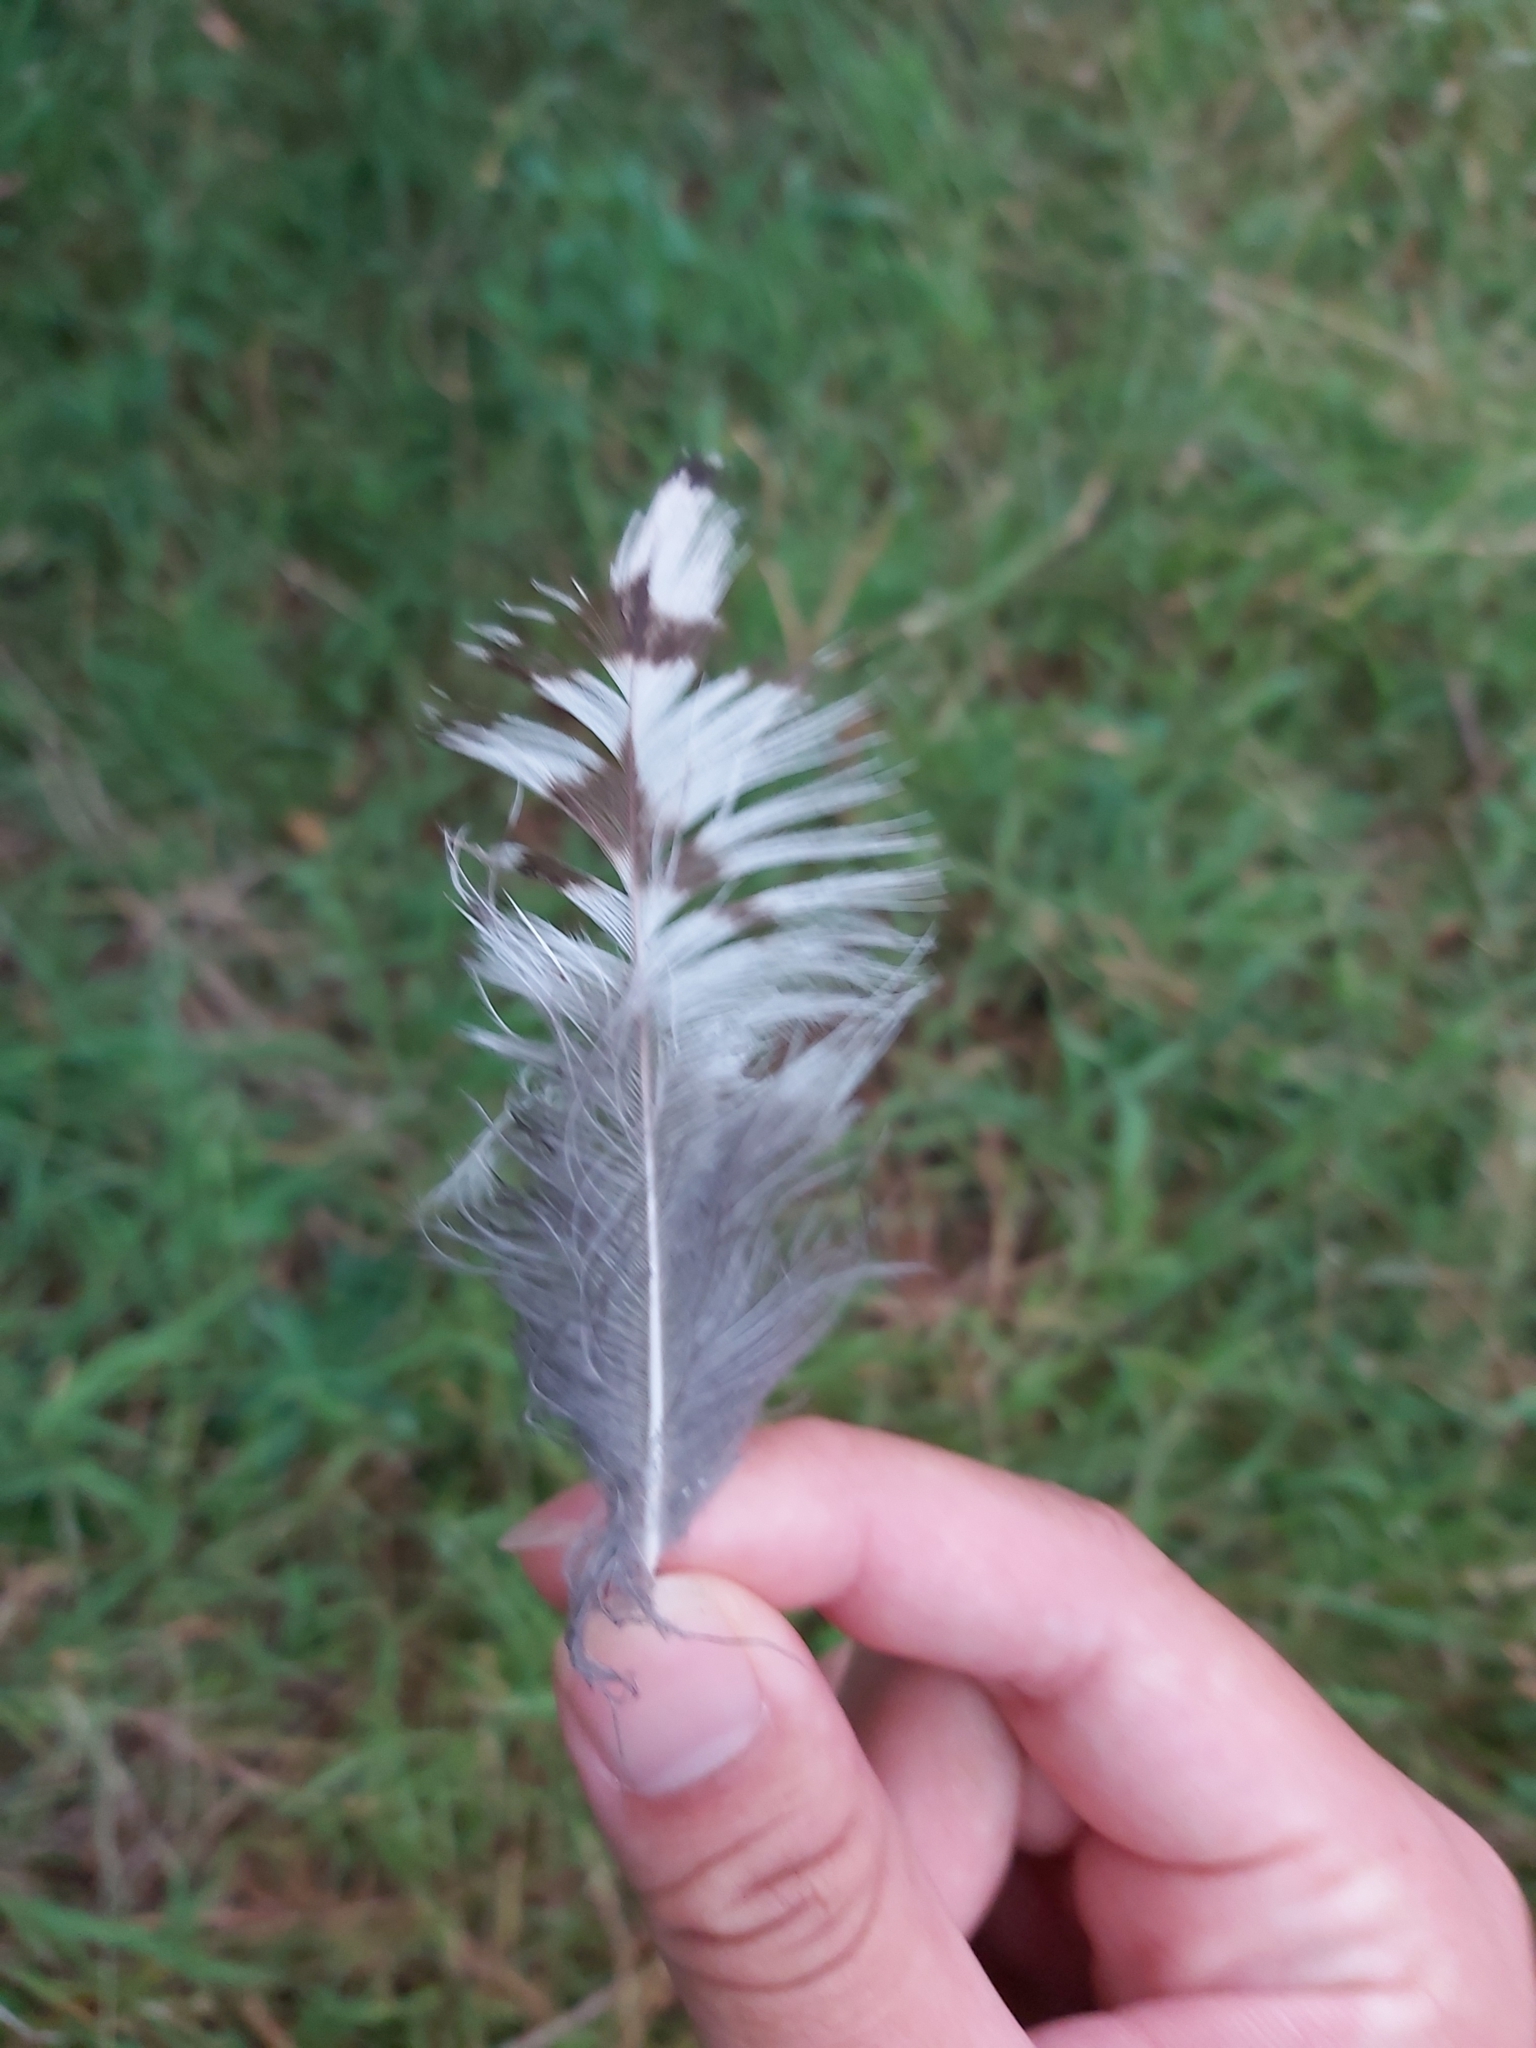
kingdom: Animalia
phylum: Chordata
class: Aves
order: Strigiformes
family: Strigidae
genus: Ninox
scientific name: Ninox strenua
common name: Powerful owl
